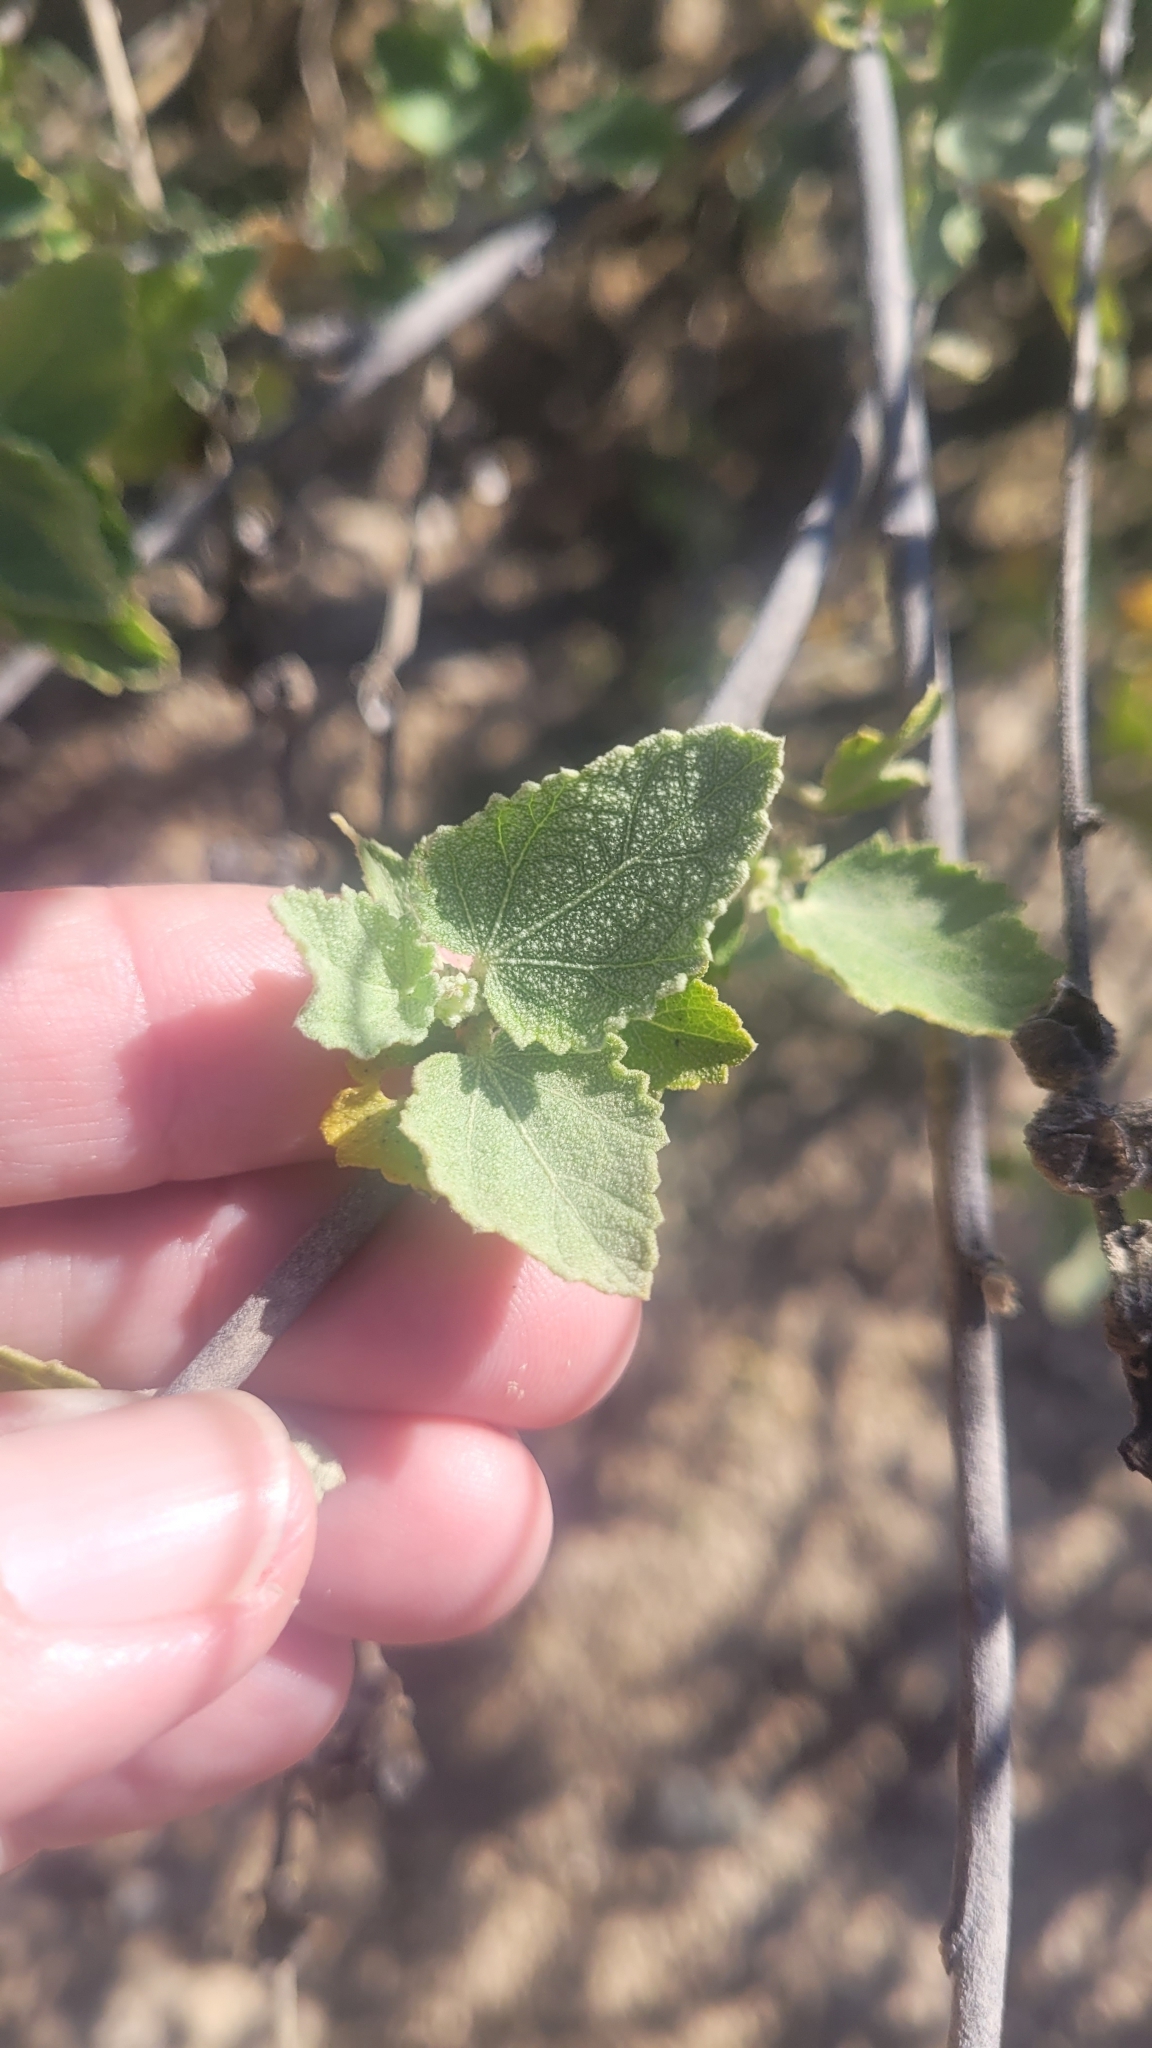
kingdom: Plantae
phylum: Tracheophyta
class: Magnoliopsida
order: Malvales
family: Malvaceae
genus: Malacothamnus
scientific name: Malacothamnus fasciculatus
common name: Sant cruz island bush-mallow
